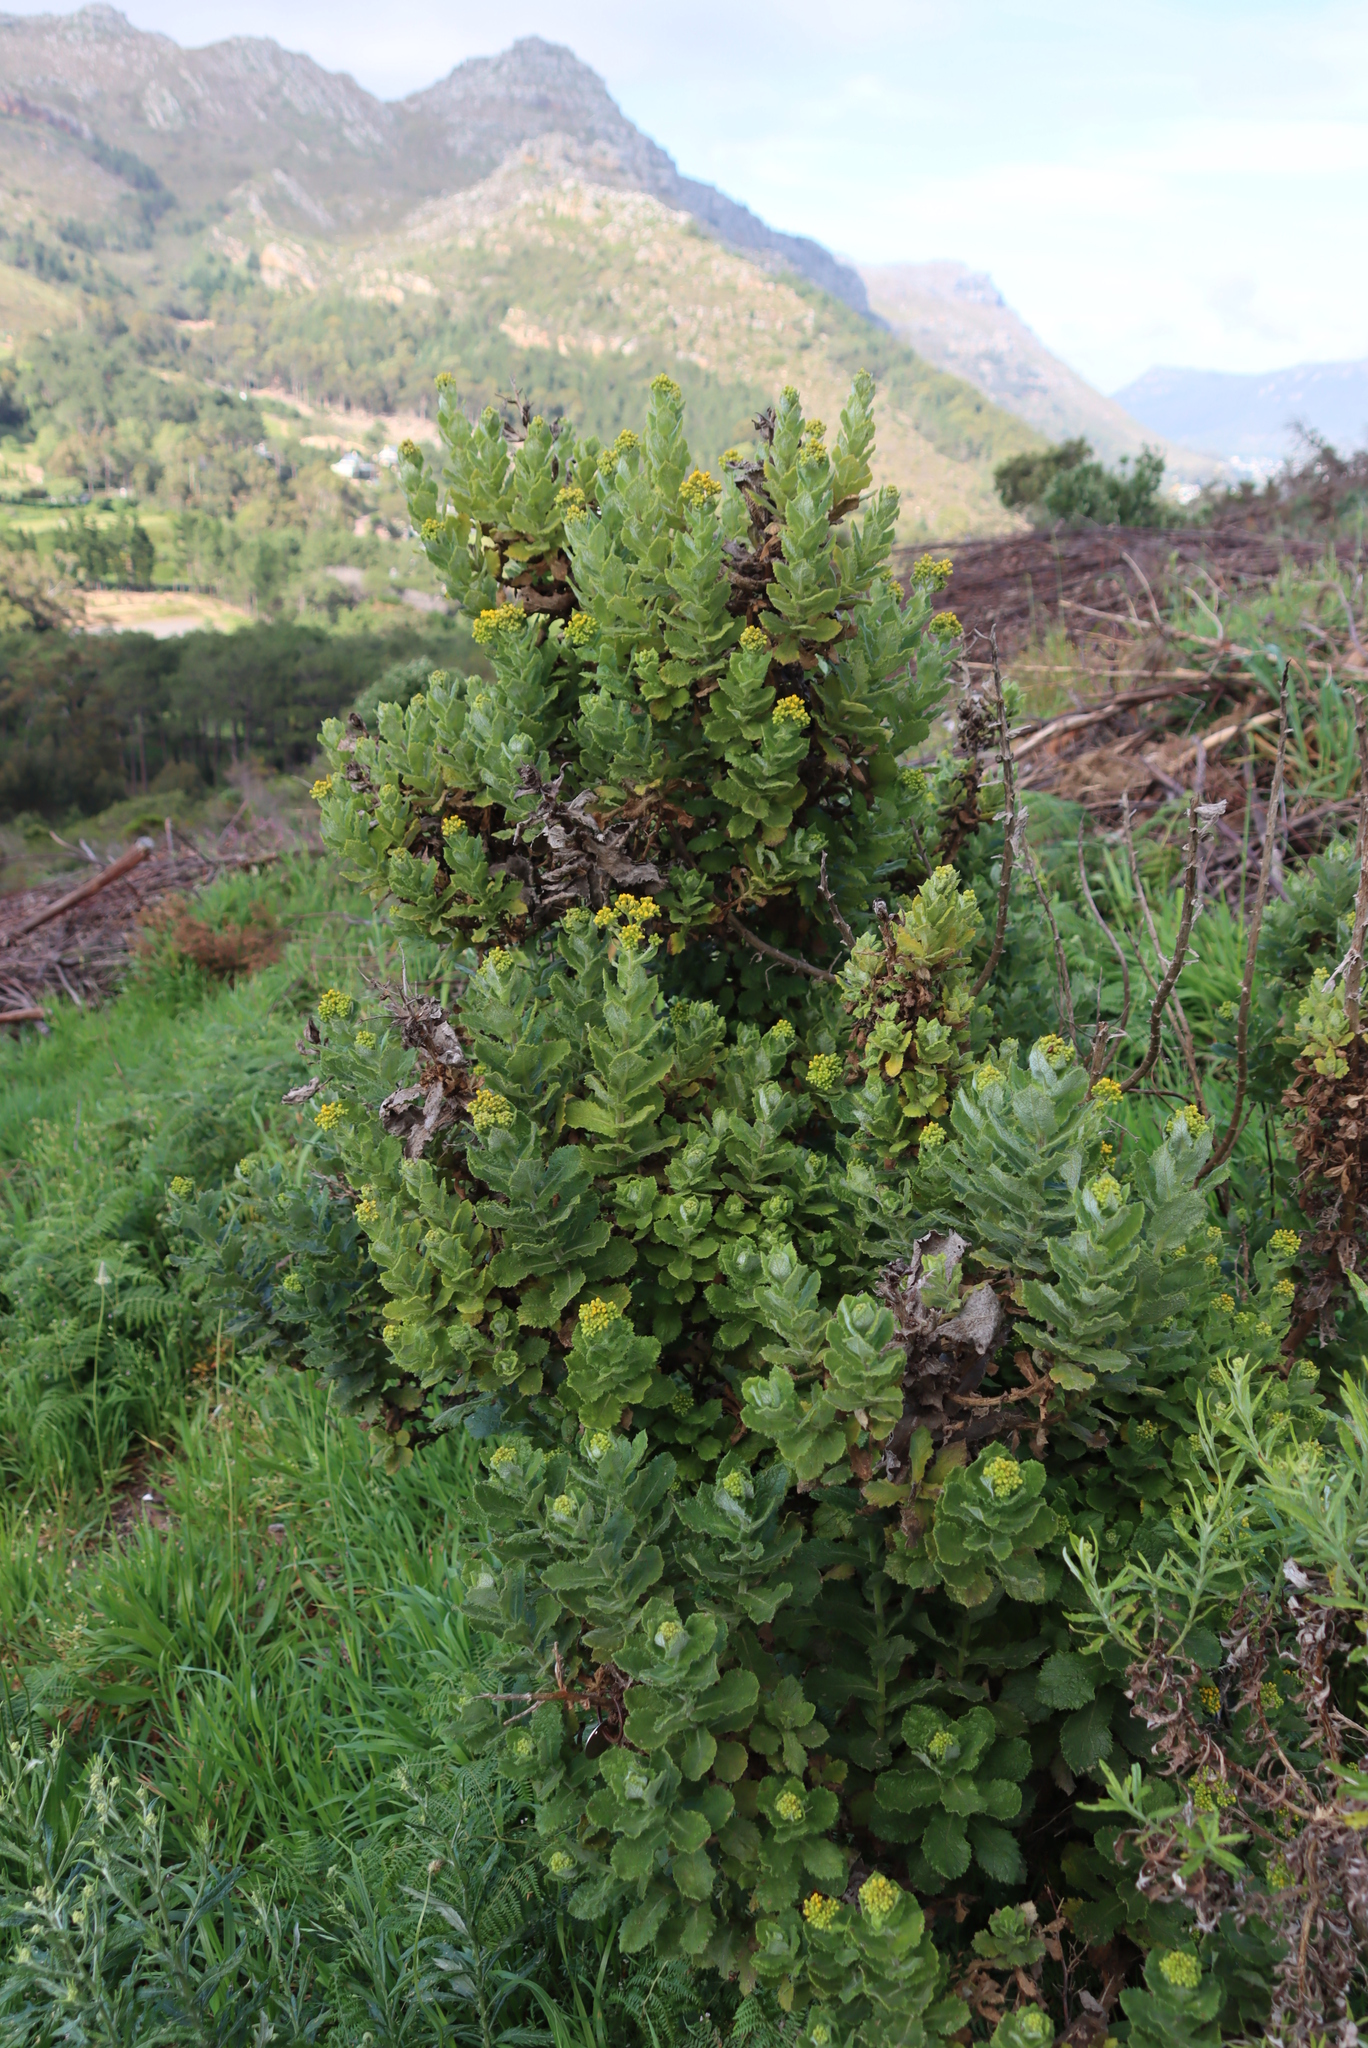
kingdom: Plantae
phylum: Tracheophyta
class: Magnoliopsida
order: Asterales
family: Asteraceae
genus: Senecio
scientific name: Senecio rigidus
